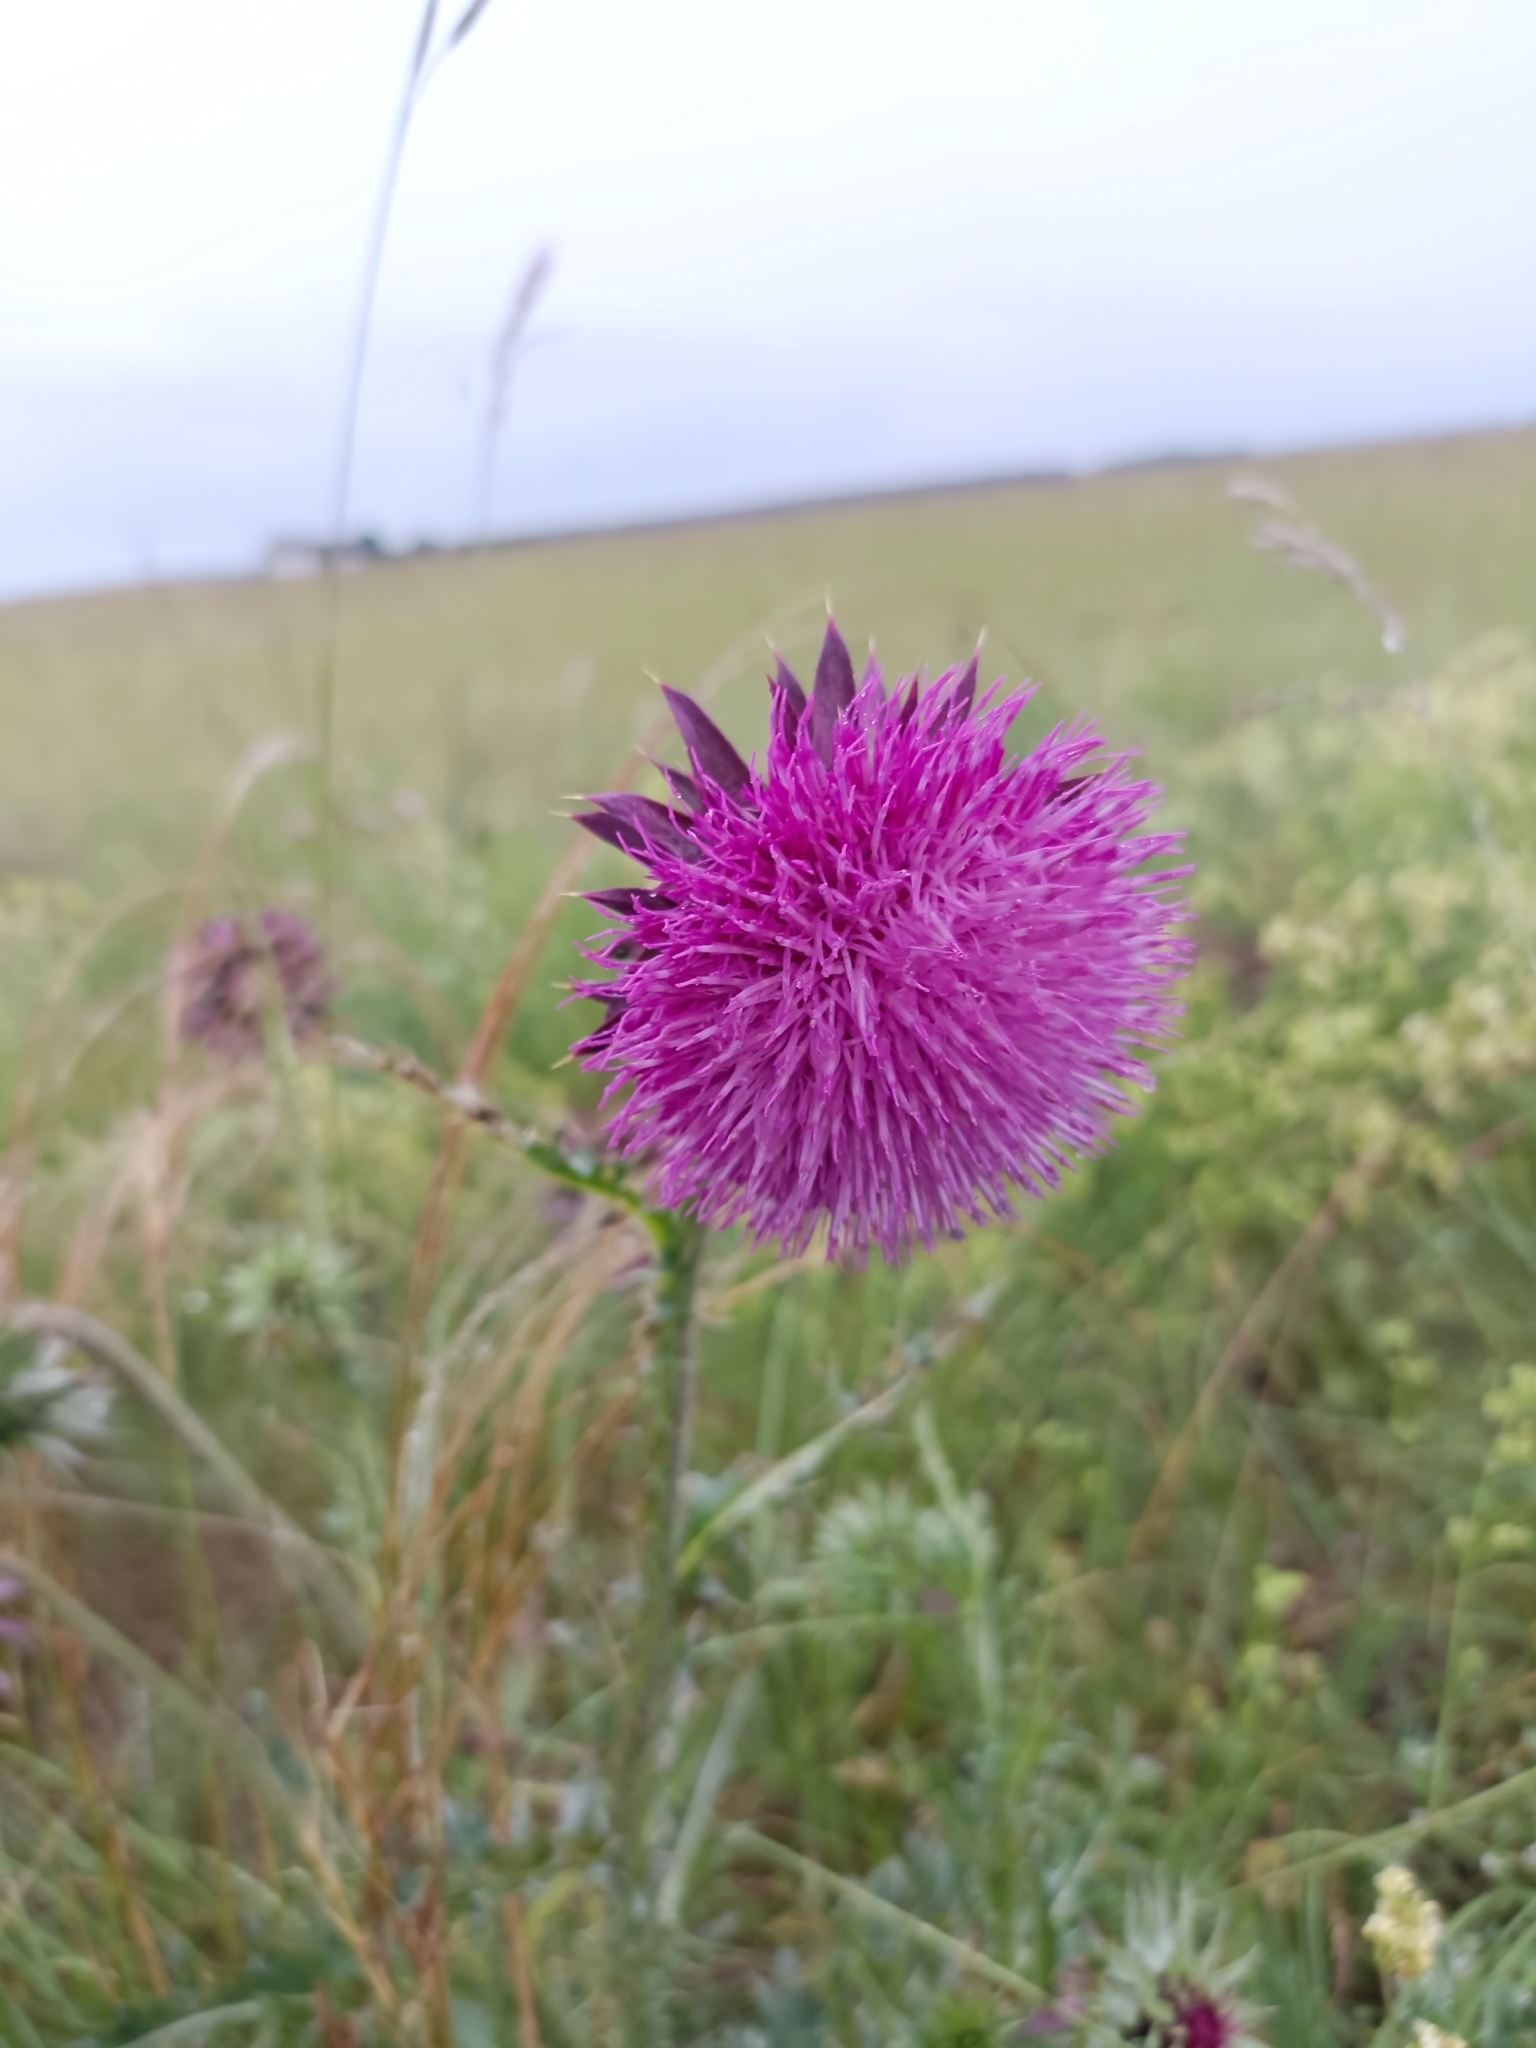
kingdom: Plantae
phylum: Tracheophyta
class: Magnoliopsida
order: Asterales
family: Asteraceae
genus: Carduus
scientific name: Carduus nutans
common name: Musk thistle
